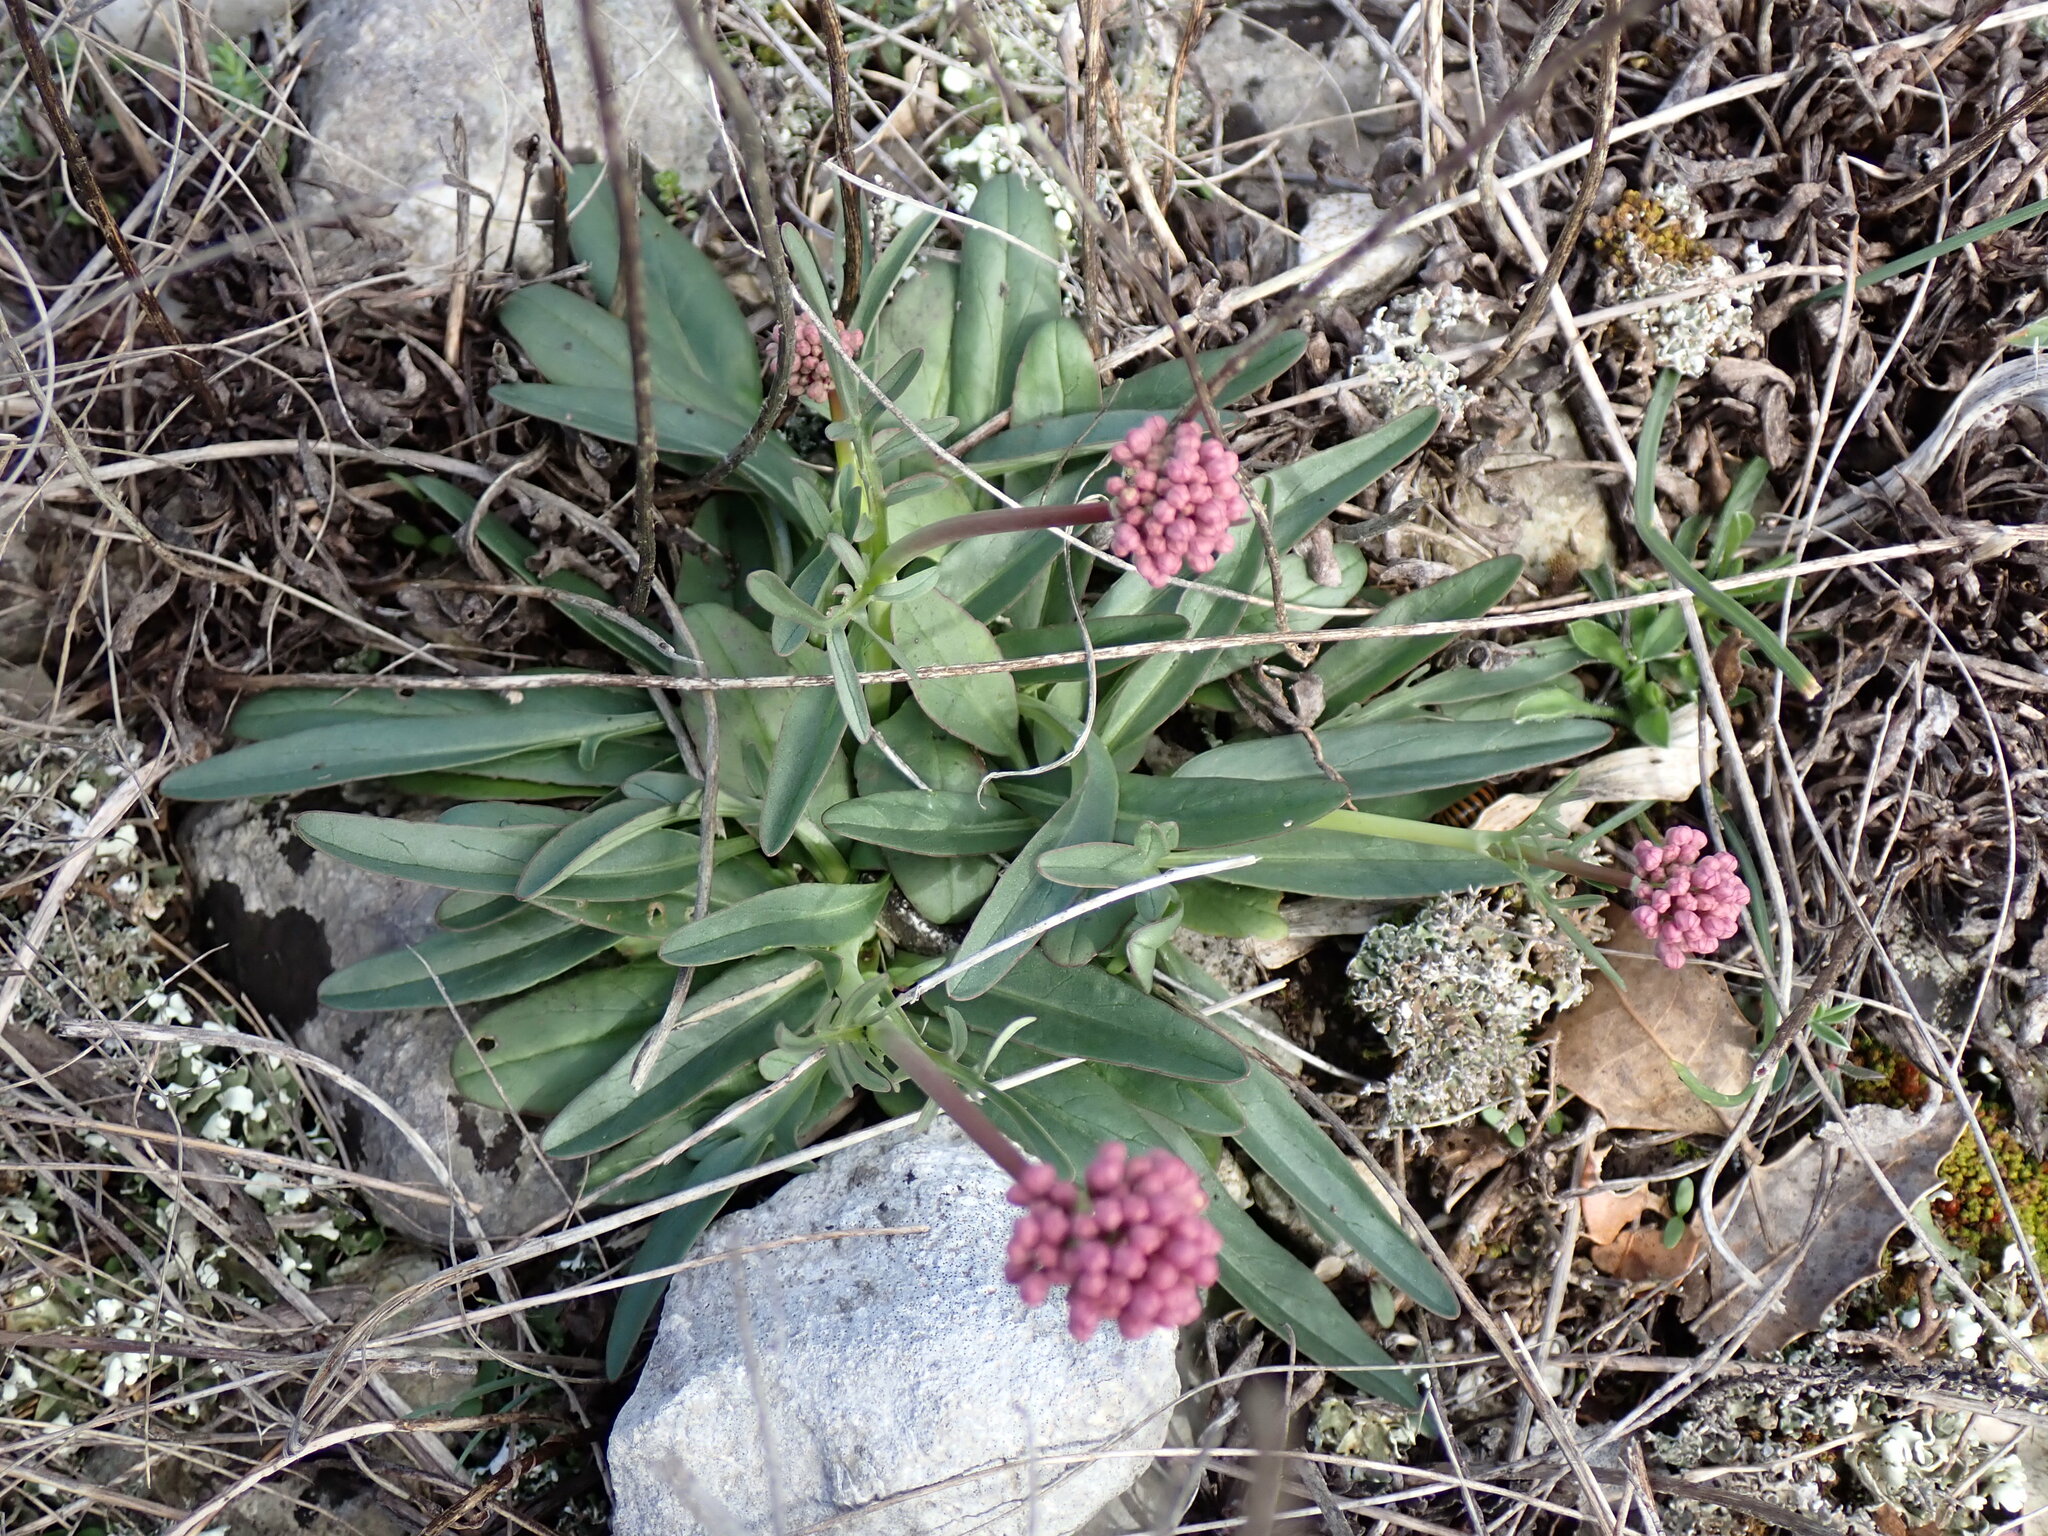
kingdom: Plantae
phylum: Tracheophyta
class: Magnoliopsida
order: Dipsacales
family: Caprifoliaceae
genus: Valeriana
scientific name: Valeriana tuberosa
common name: Tuberous valerian
